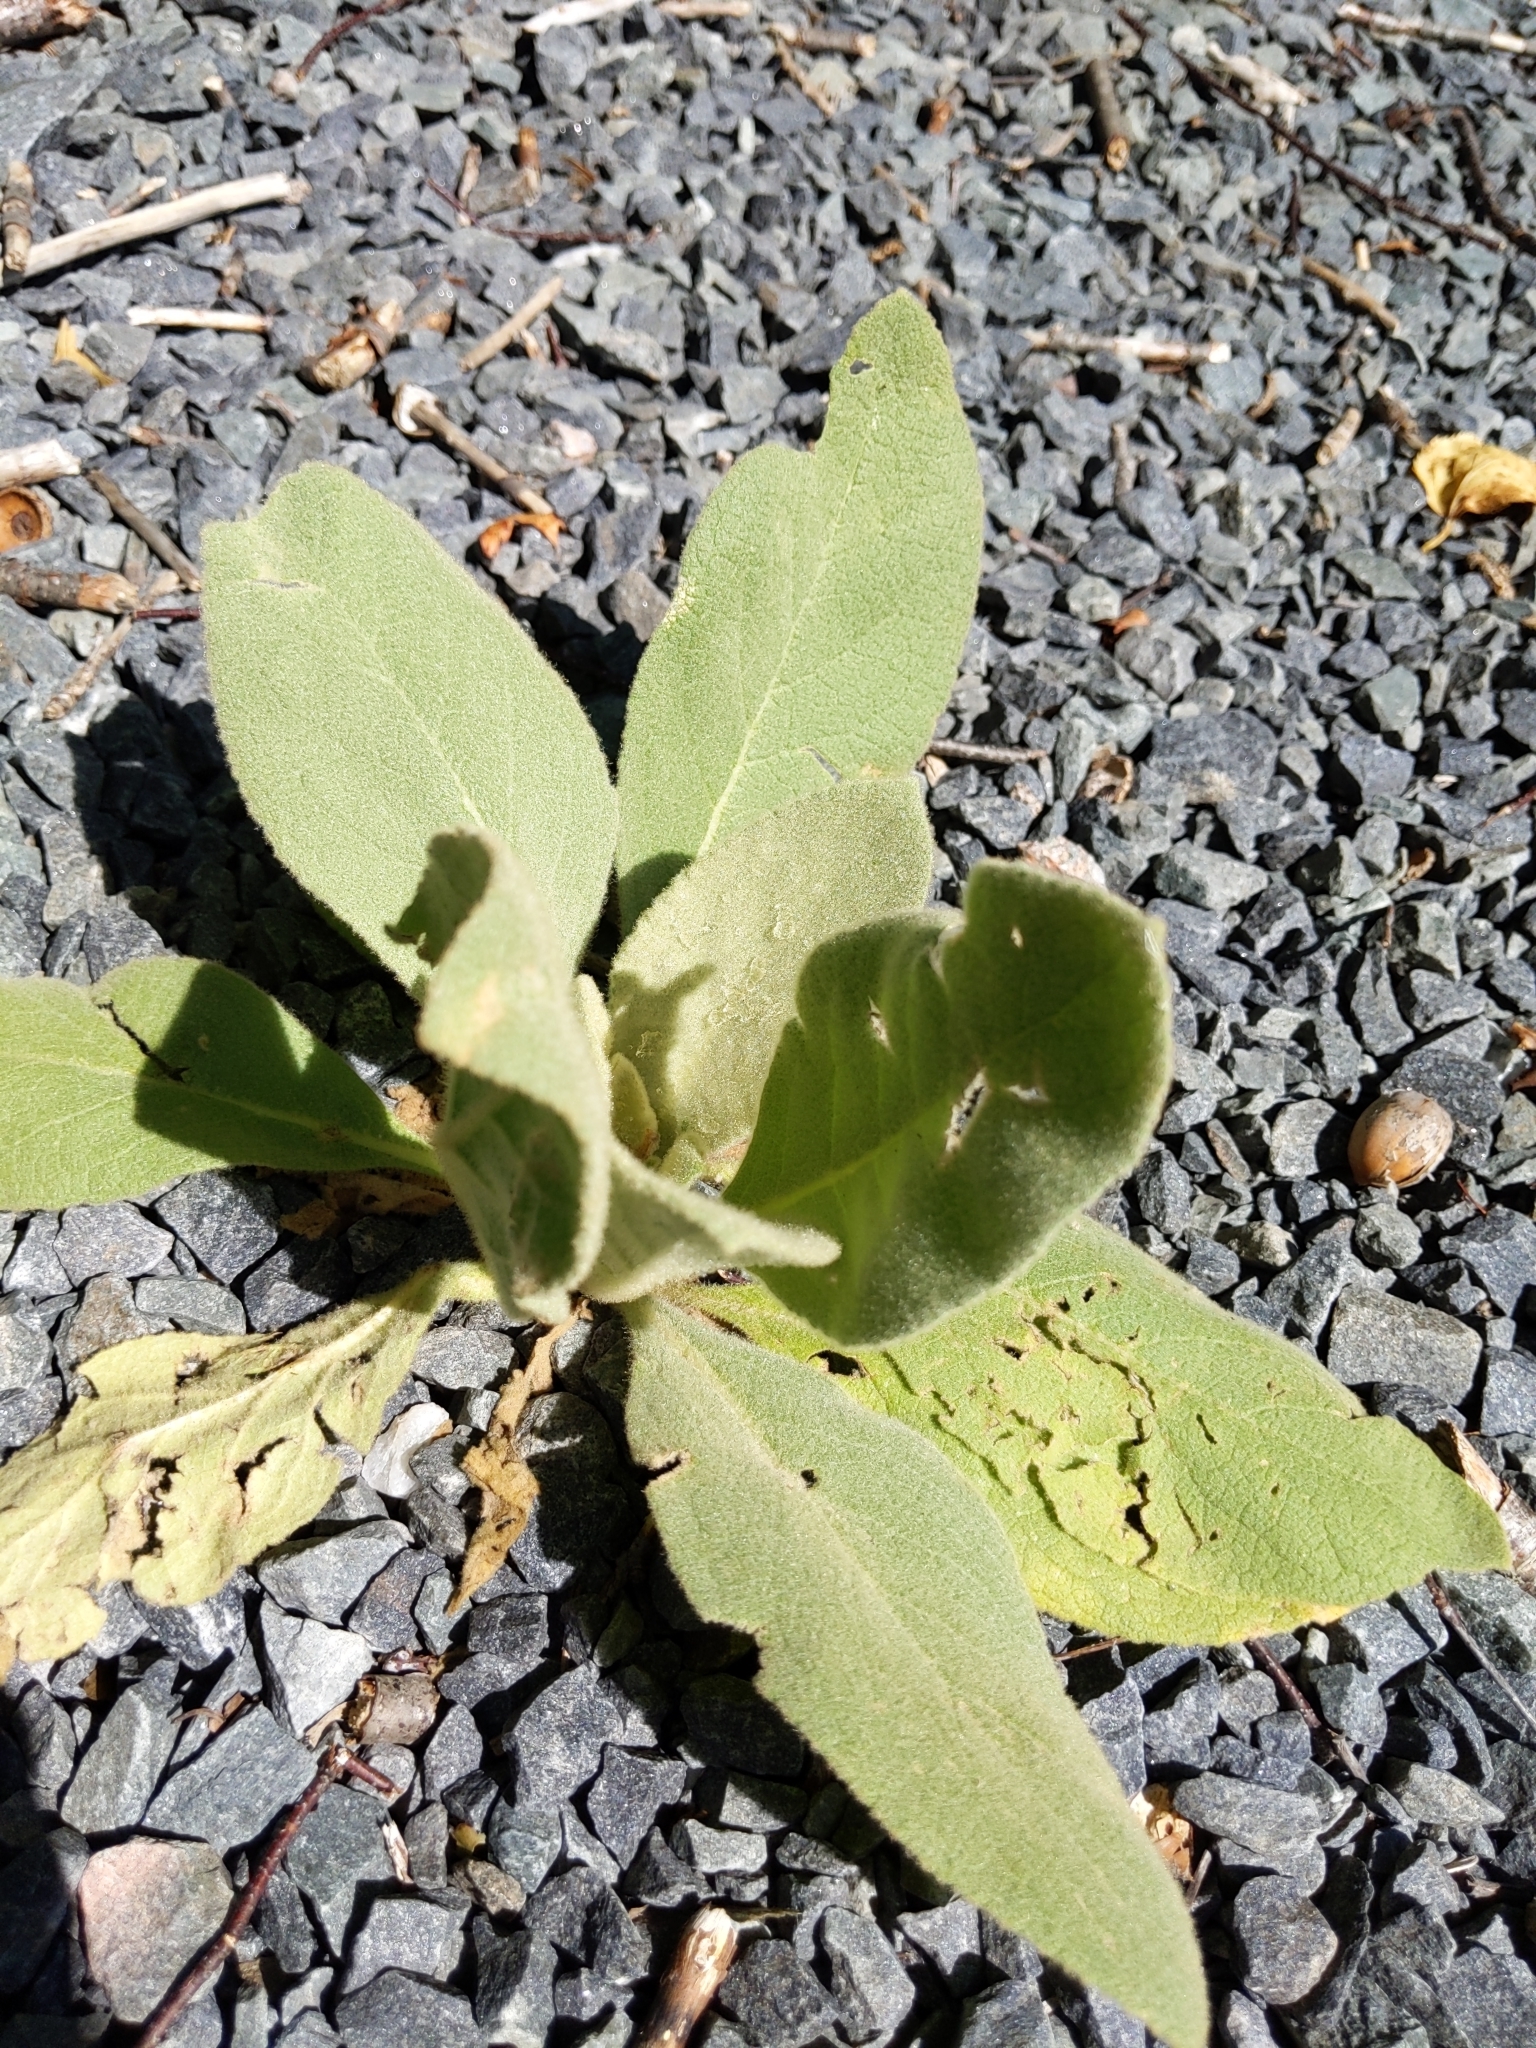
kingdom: Plantae
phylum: Tracheophyta
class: Magnoliopsida
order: Lamiales
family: Scrophulariaceae
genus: Verbascum
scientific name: Verbascum thapsus
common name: Common mullein
